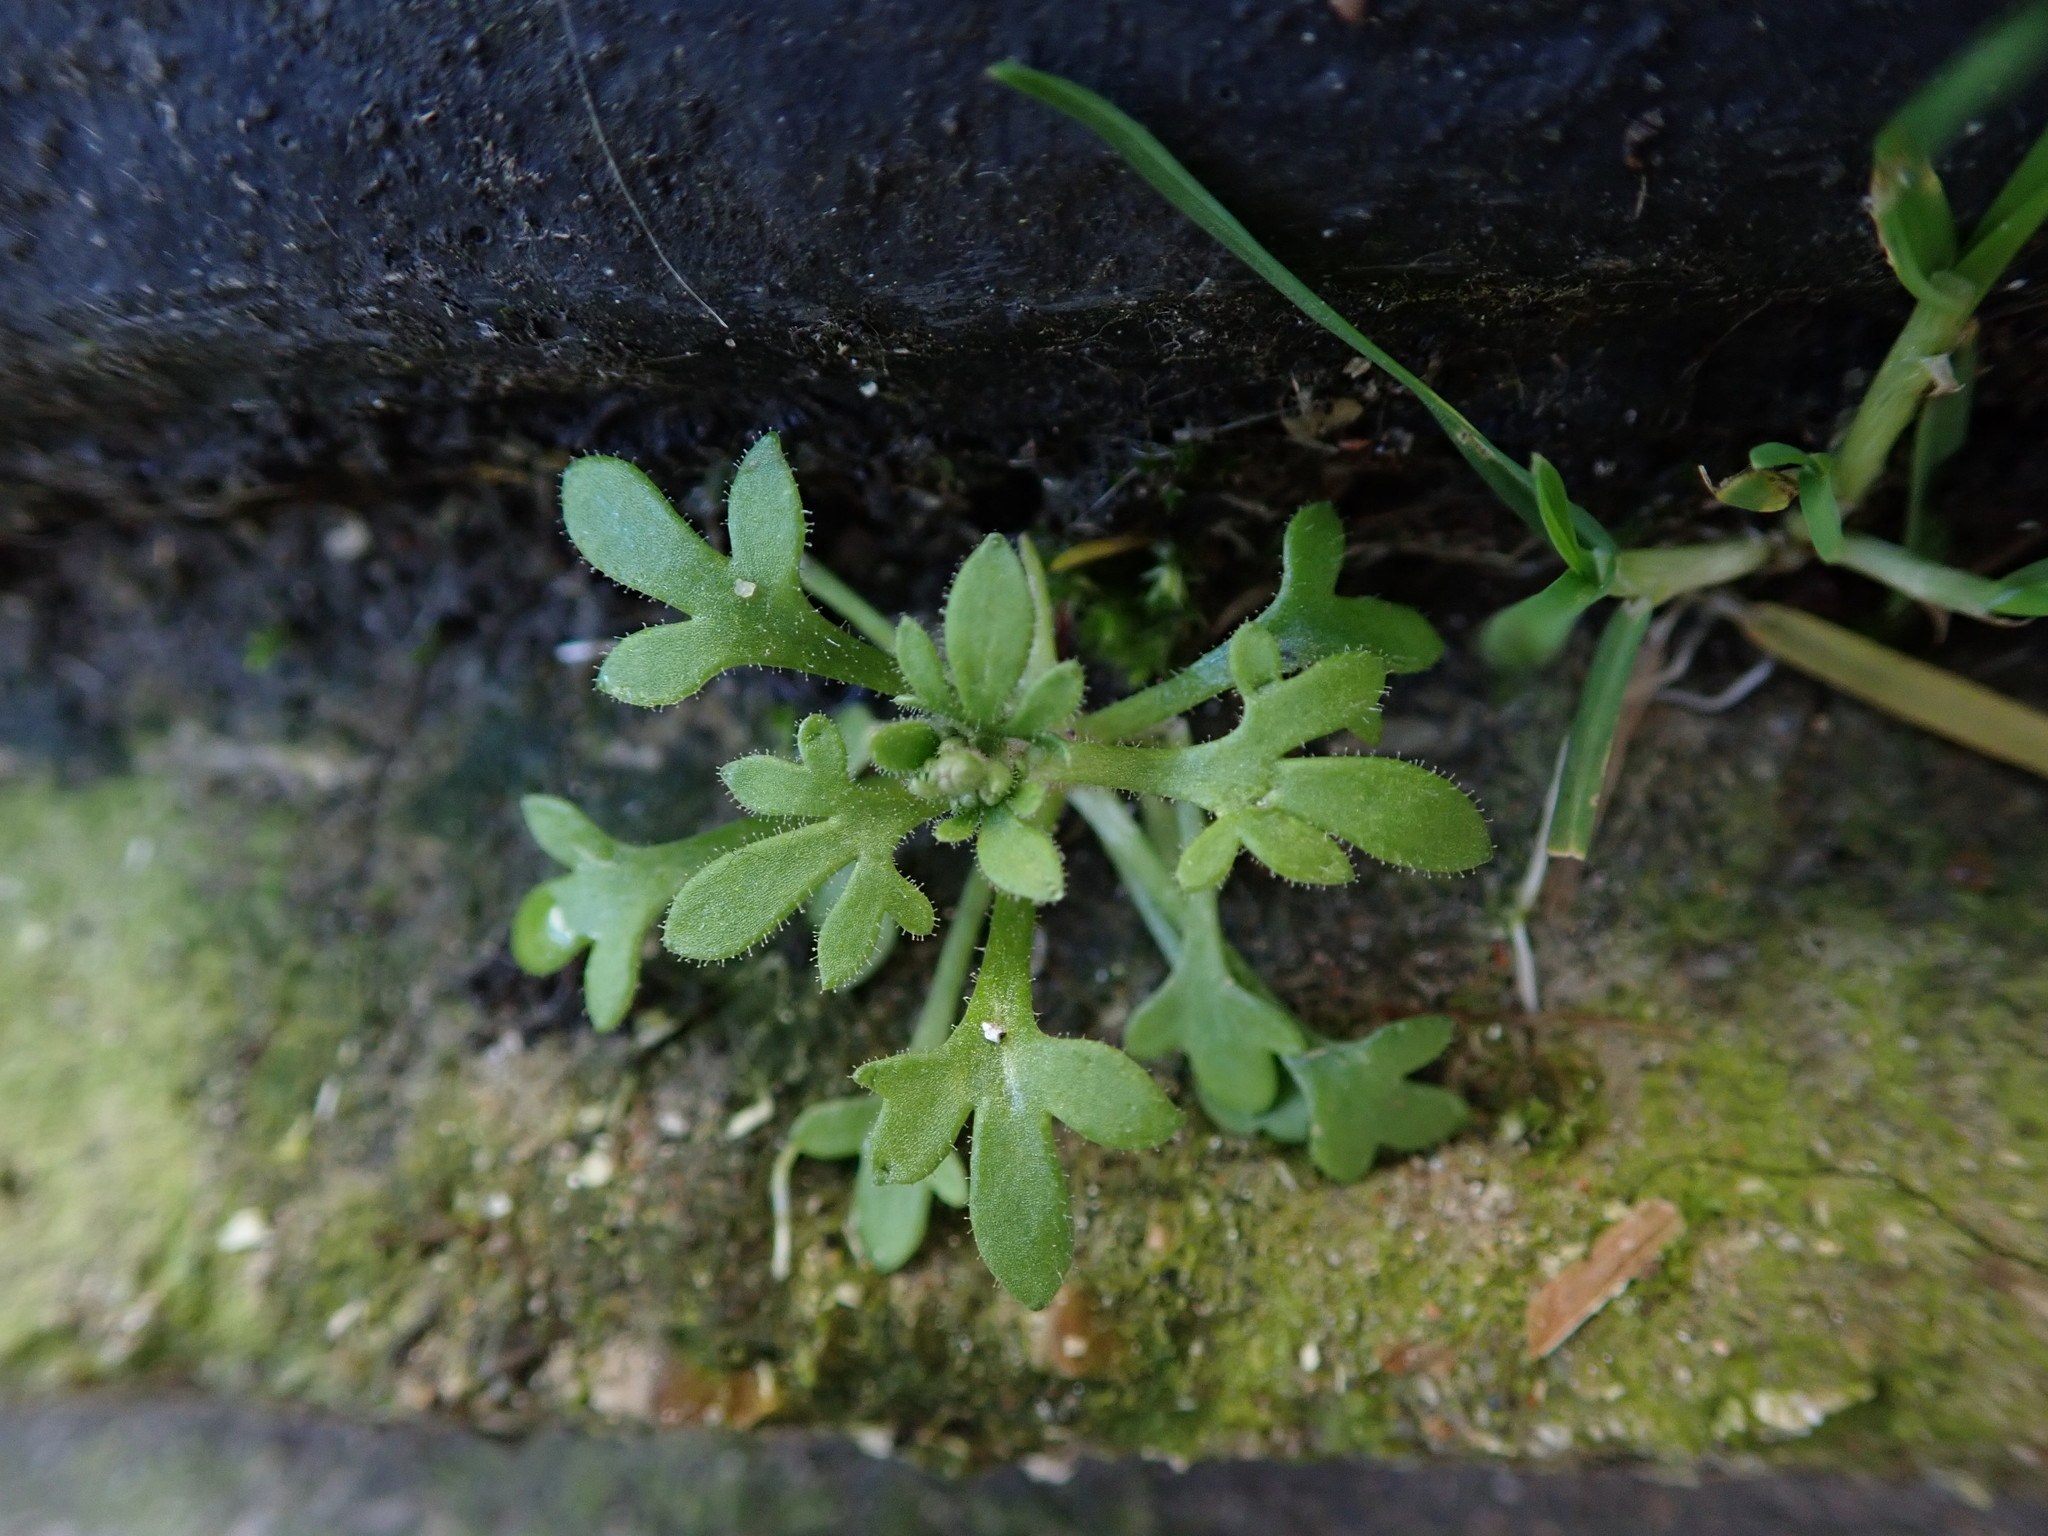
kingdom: Plantae
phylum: Tracheophyta
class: Magnoliopsida
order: Saxifragales
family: Saxifragaceae
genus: Saxifraga
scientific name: Saxifraga tridactylites
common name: Rue-leaved saxifrage
